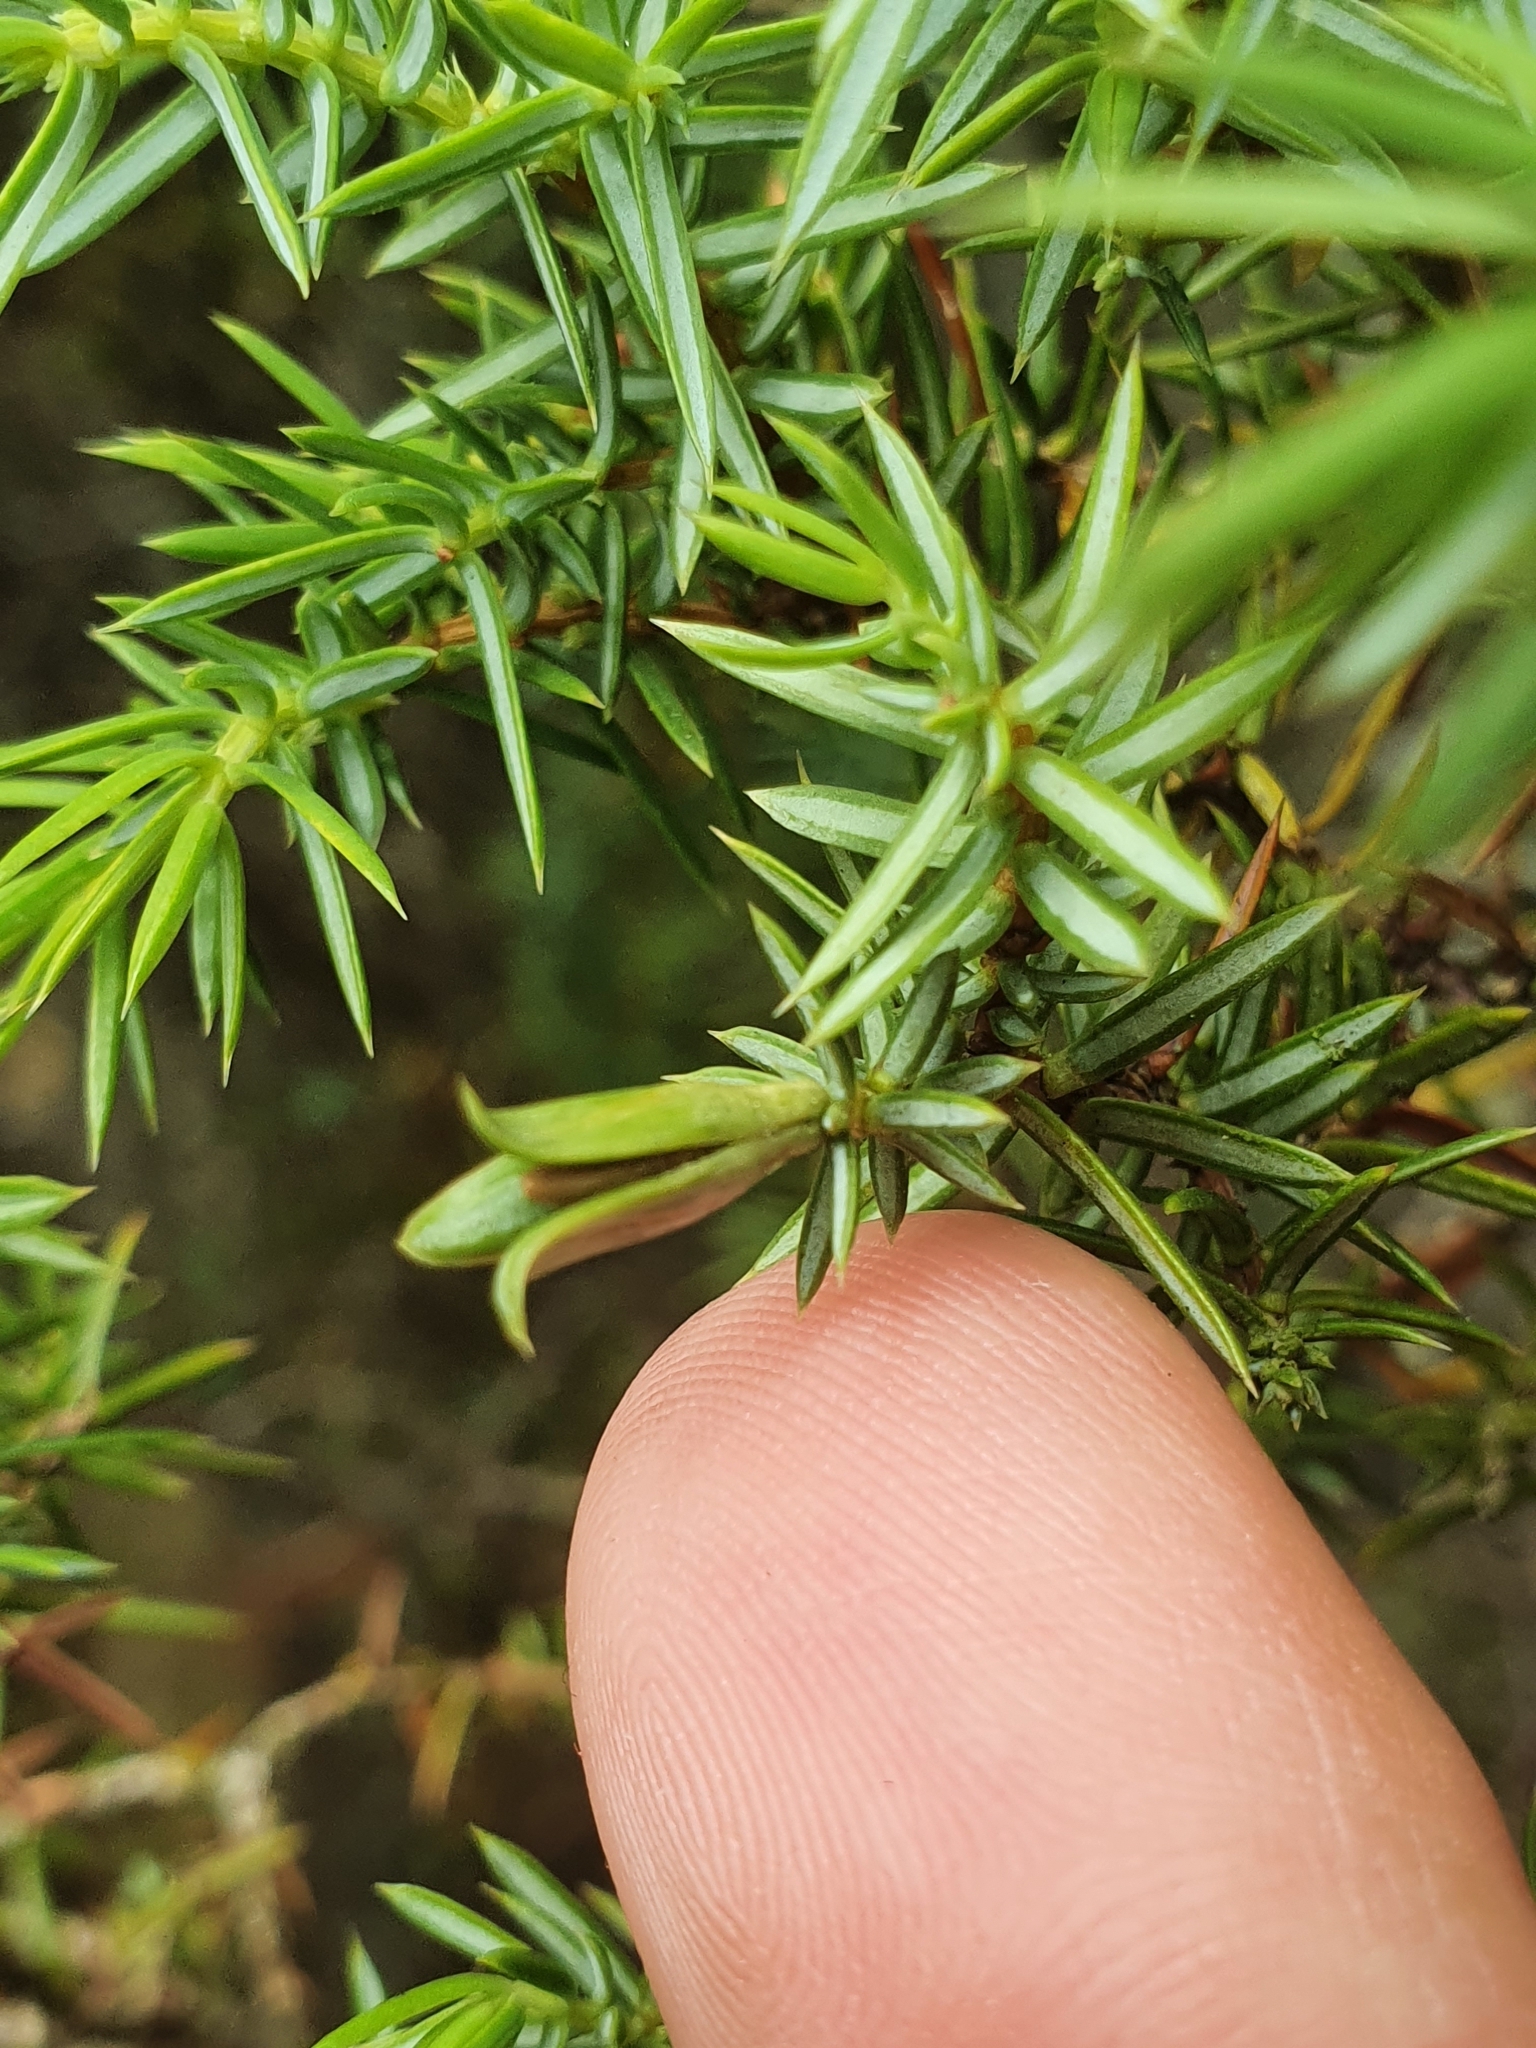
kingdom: Animalia
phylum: Arthropoda
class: Insecta
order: Diptera
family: Cecidomyiidae
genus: Oligotrophus
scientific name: Oligotrophus juniperinus
